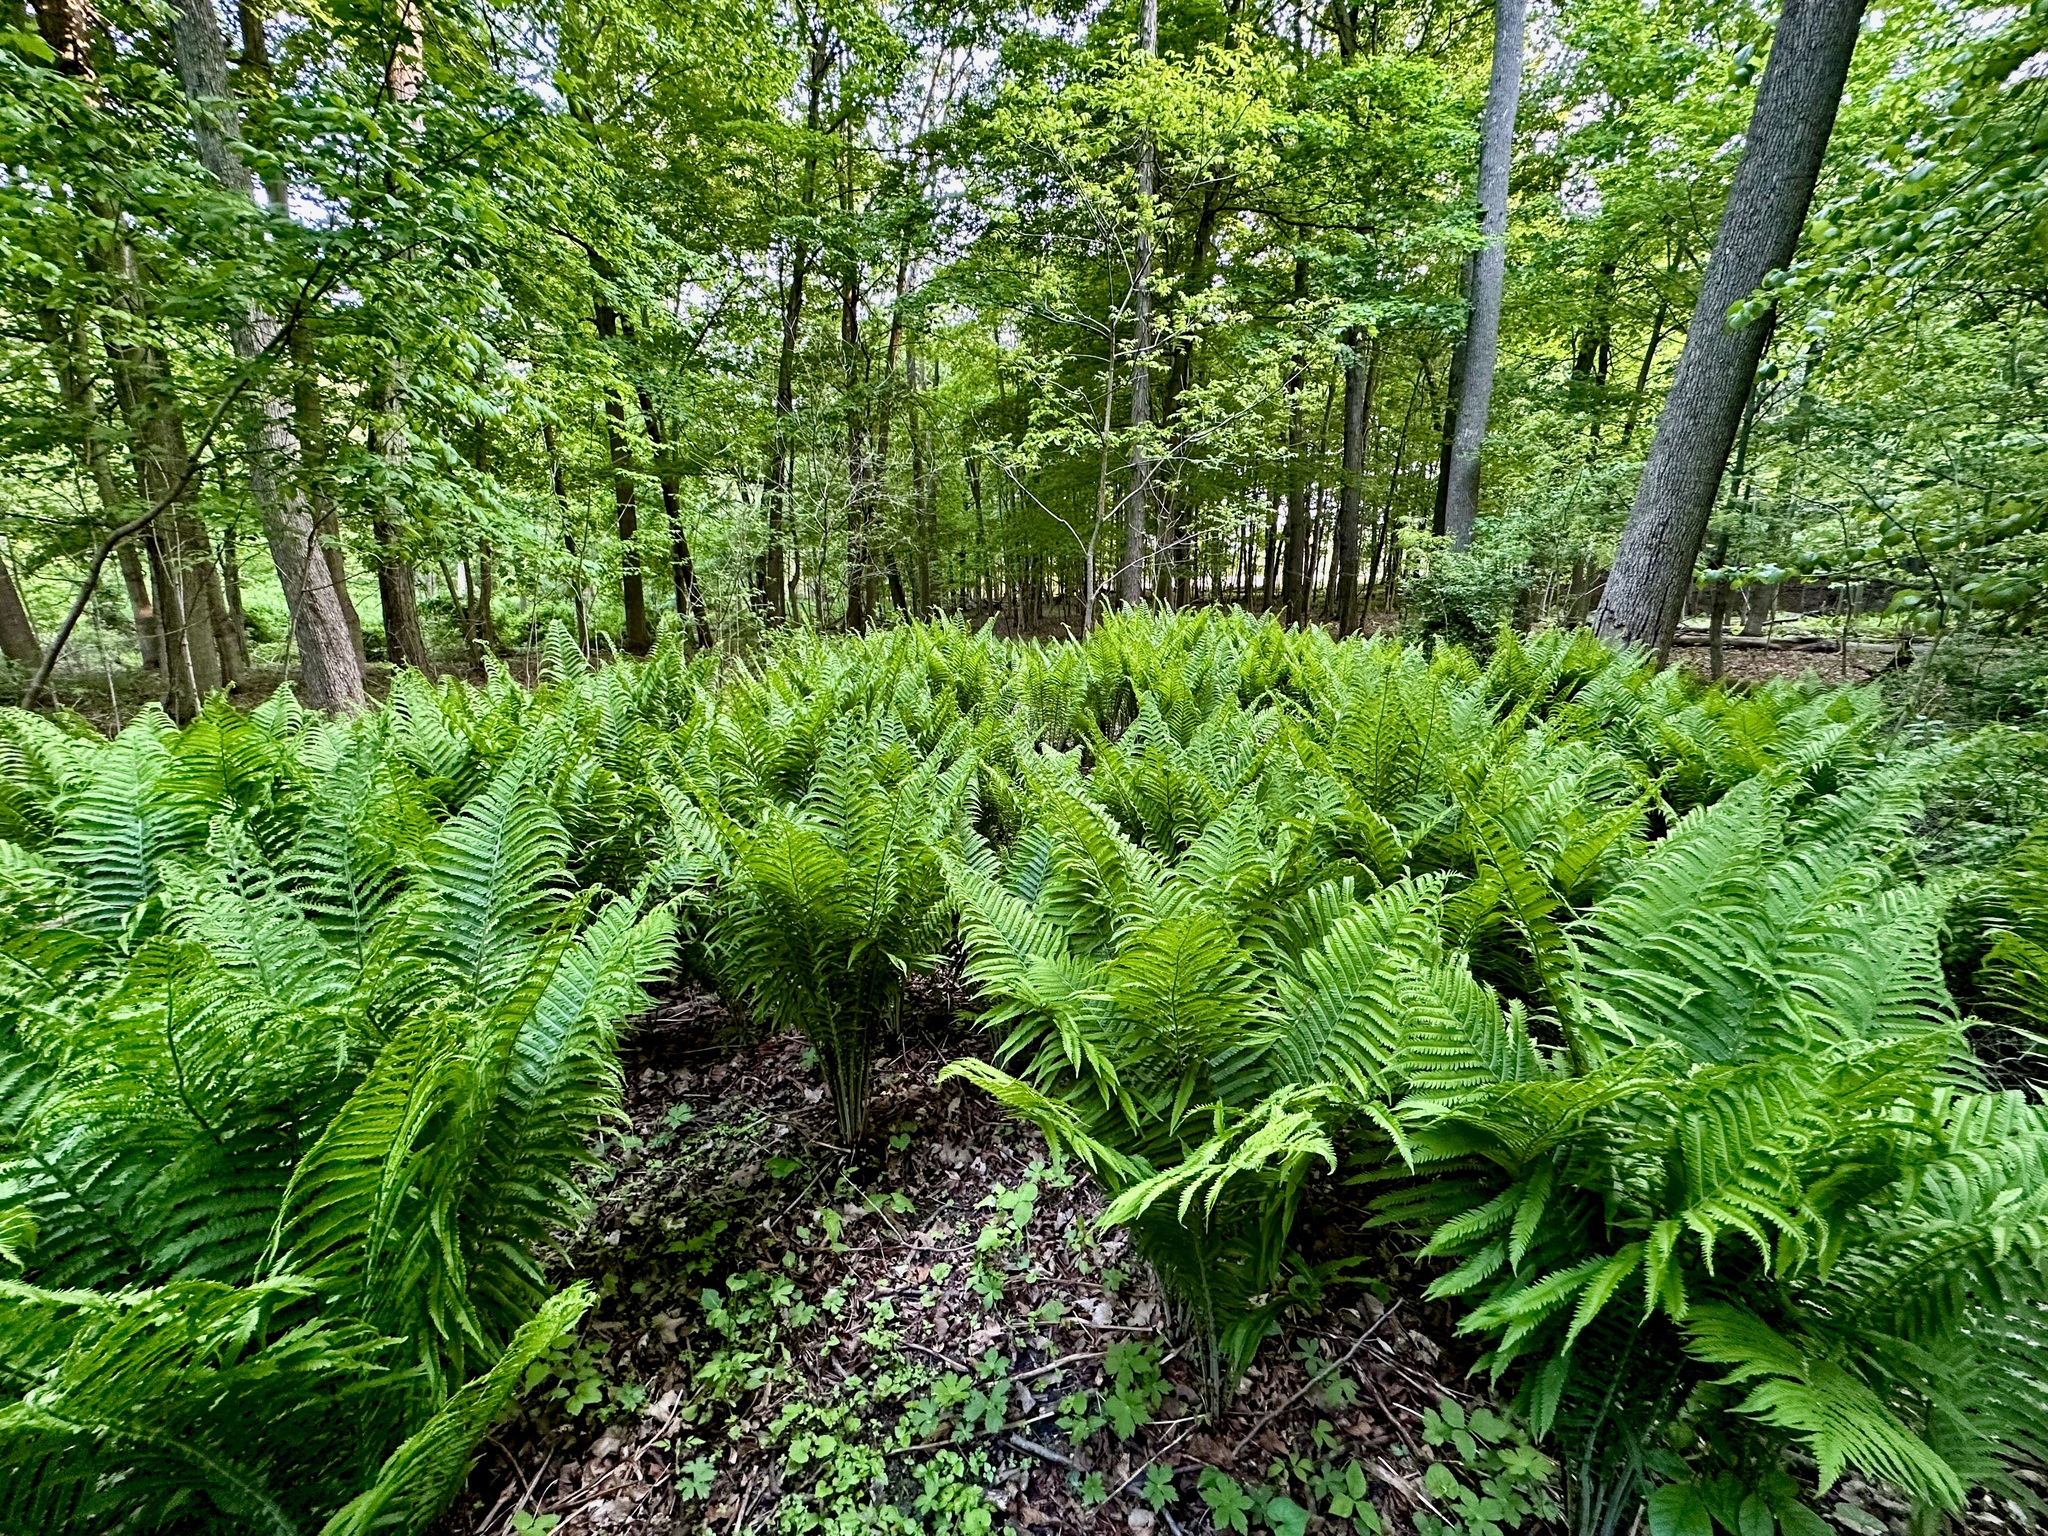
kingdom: Plantae
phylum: Tracheophyta
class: Polypodiopsida
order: Polypodiales
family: Onocleaceae
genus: Matteuccia
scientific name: Matteuccia struthiopteris
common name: Ostrich fern
